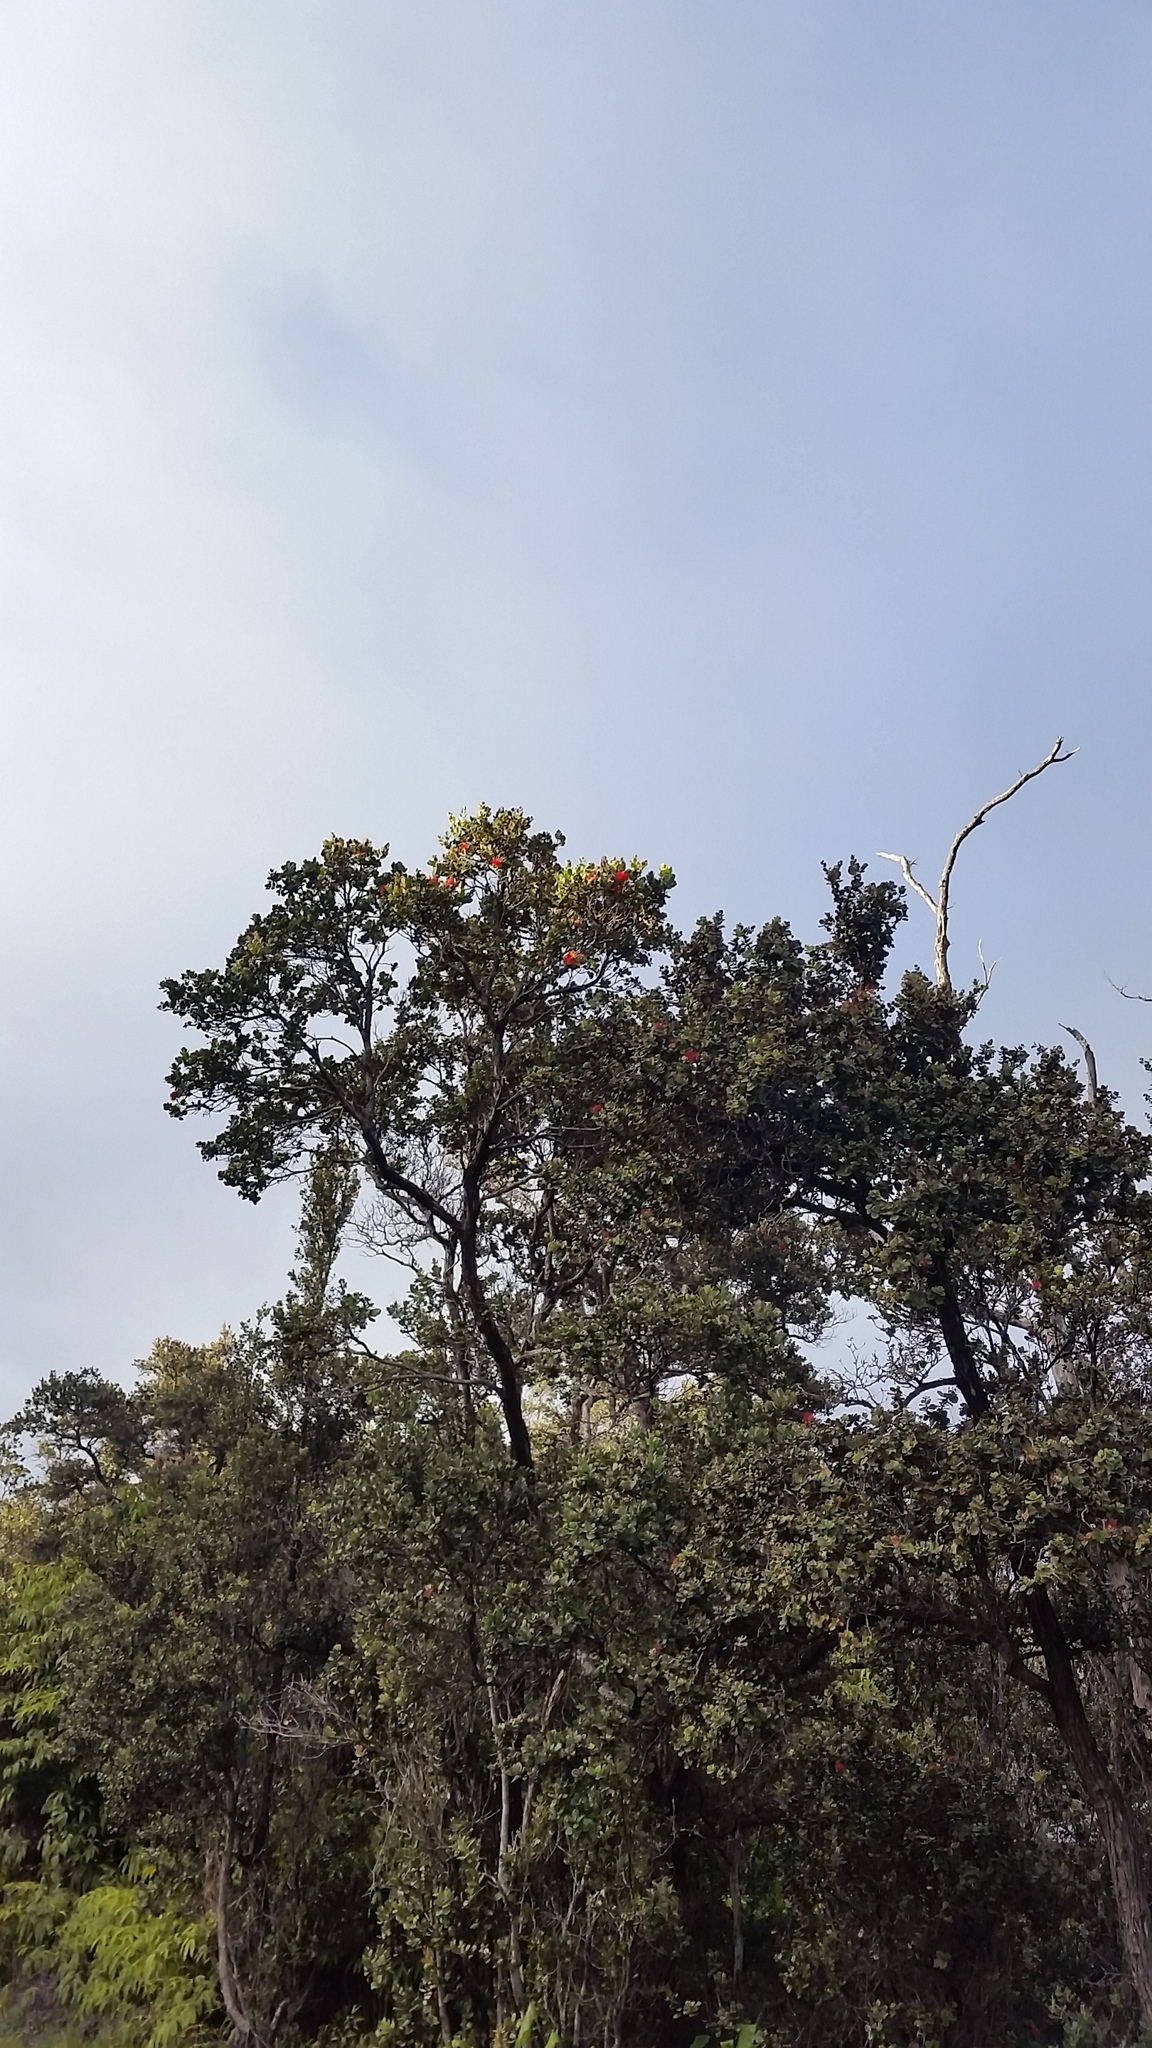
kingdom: Plantae
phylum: Tracheophyta
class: Magnoliopsida
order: Myrtales
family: Myrtaceae
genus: Metrosideros
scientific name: Metrosideros polymorpha
